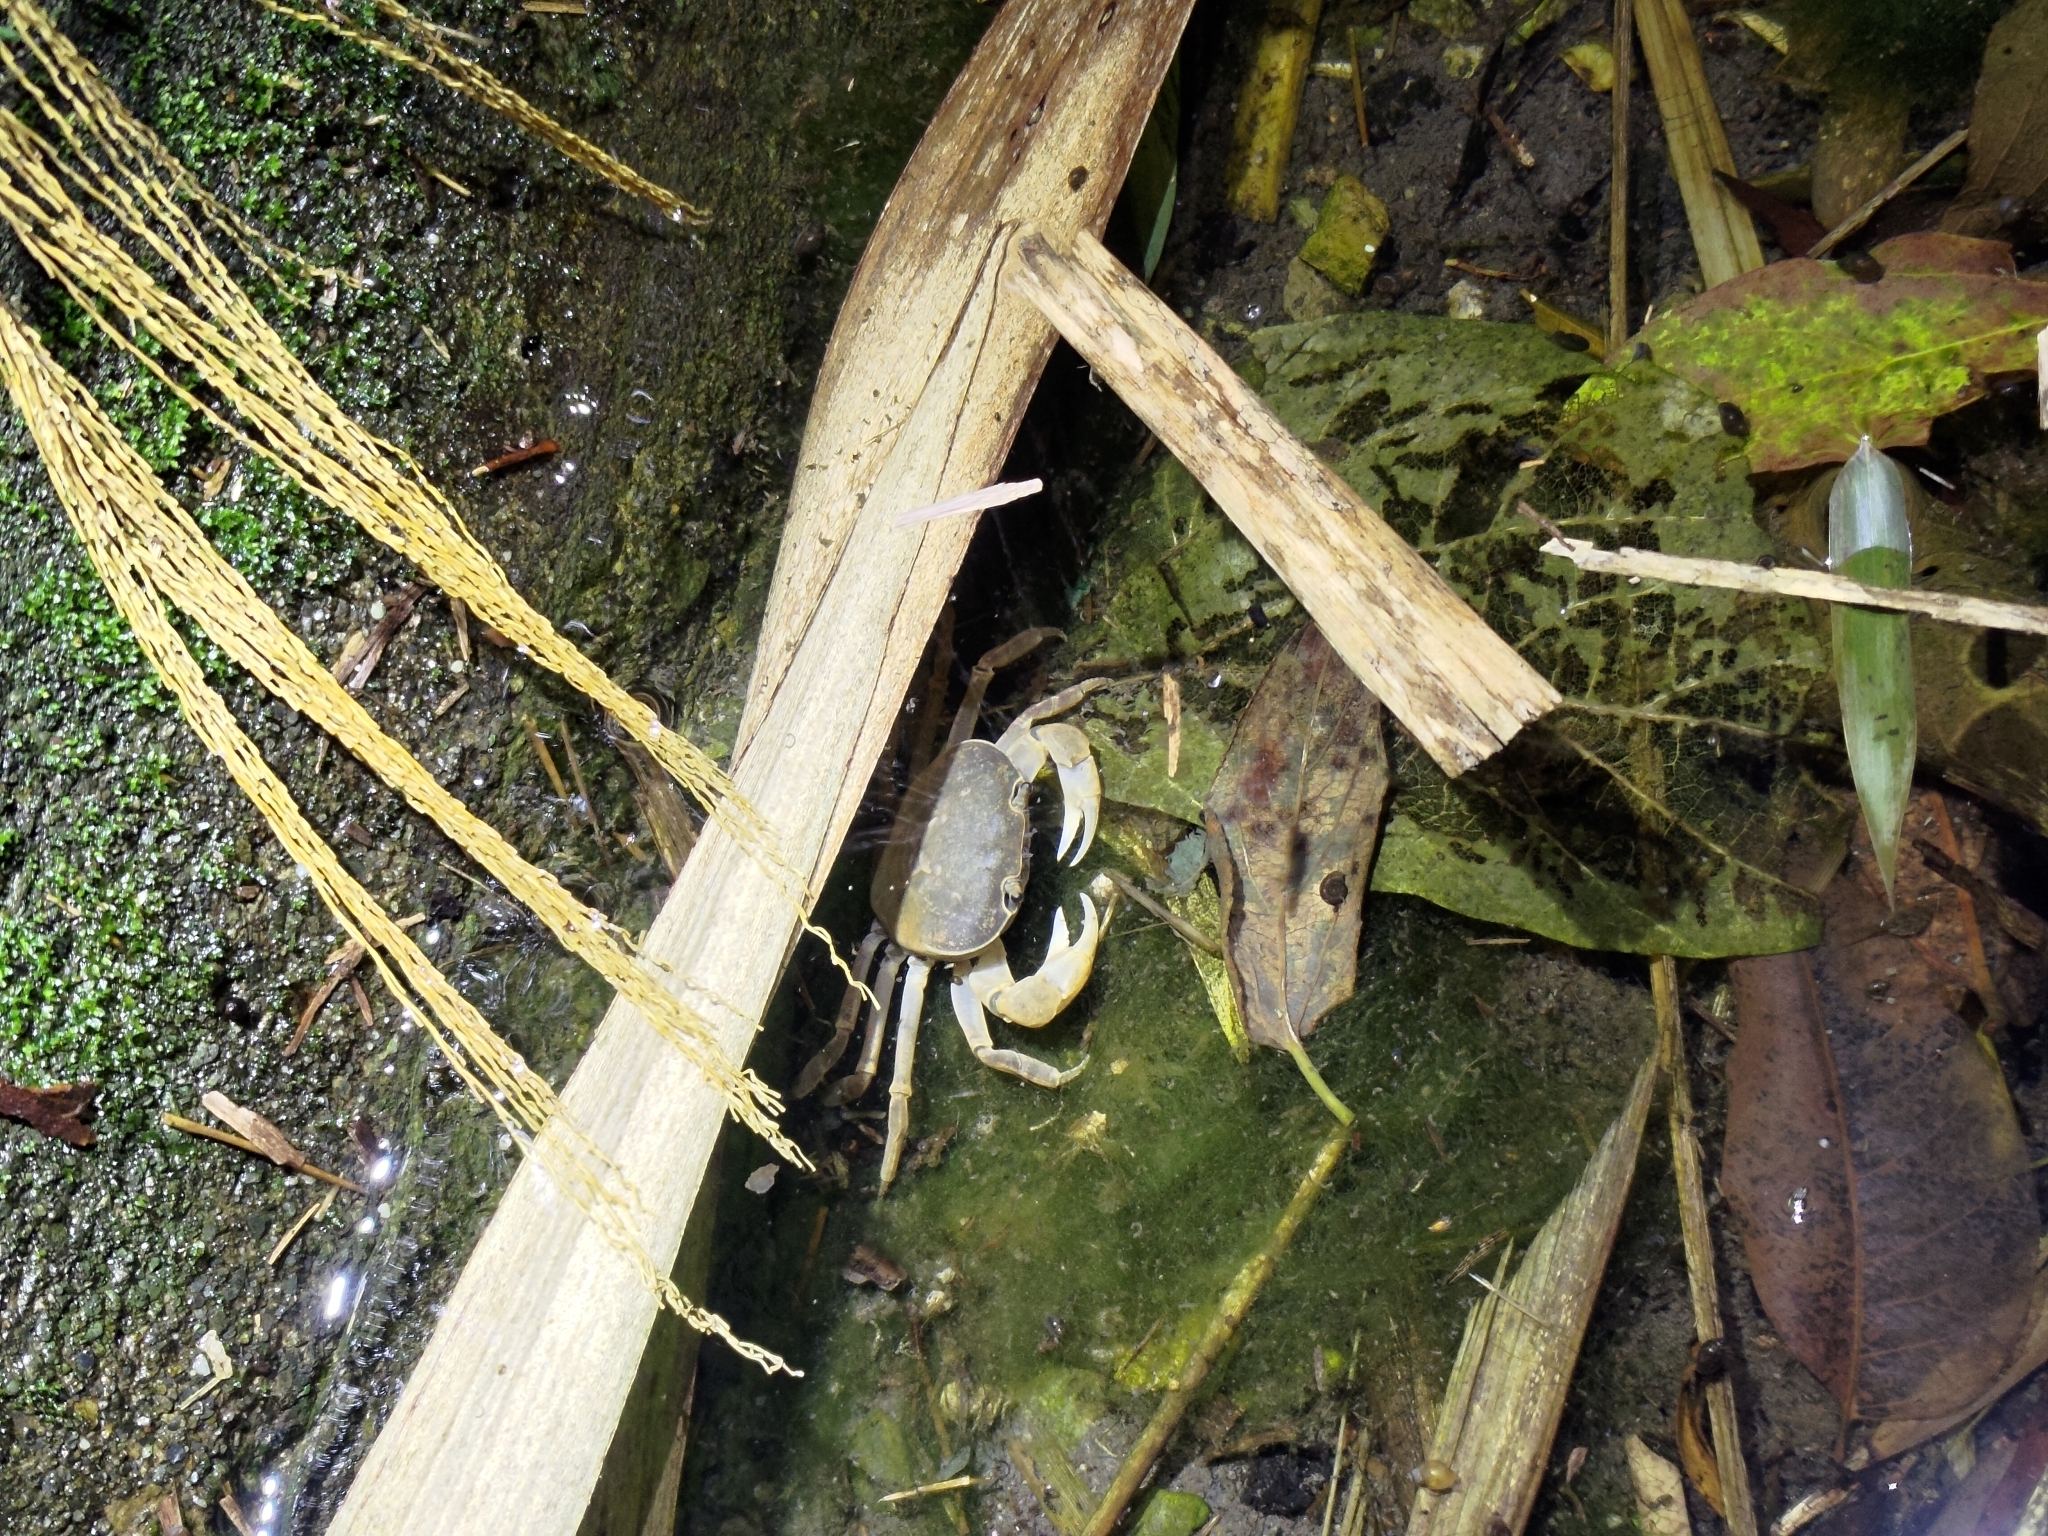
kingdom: Animalia
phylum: Arthropoda
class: Malacostraca
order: Decapoda
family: Potamidae
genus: Geothelphusa
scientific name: Geothelphusa olea
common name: Yellow-green crab
